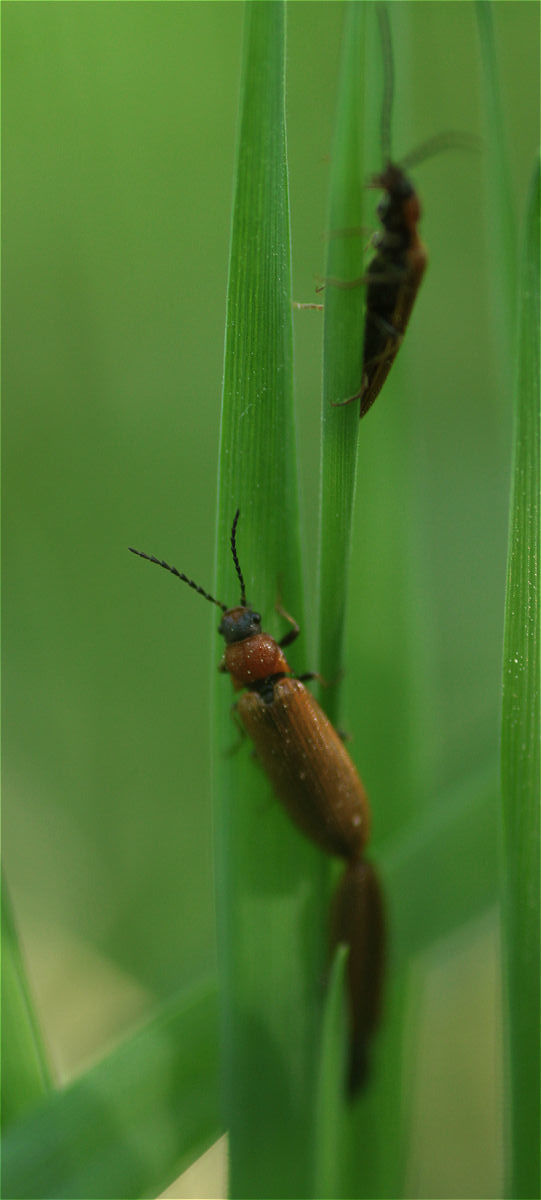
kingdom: Animalia
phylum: Arthropoda
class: Insecta
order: Coleoptera
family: Elateridae
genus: Denticollis
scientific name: Denticollis linearis
